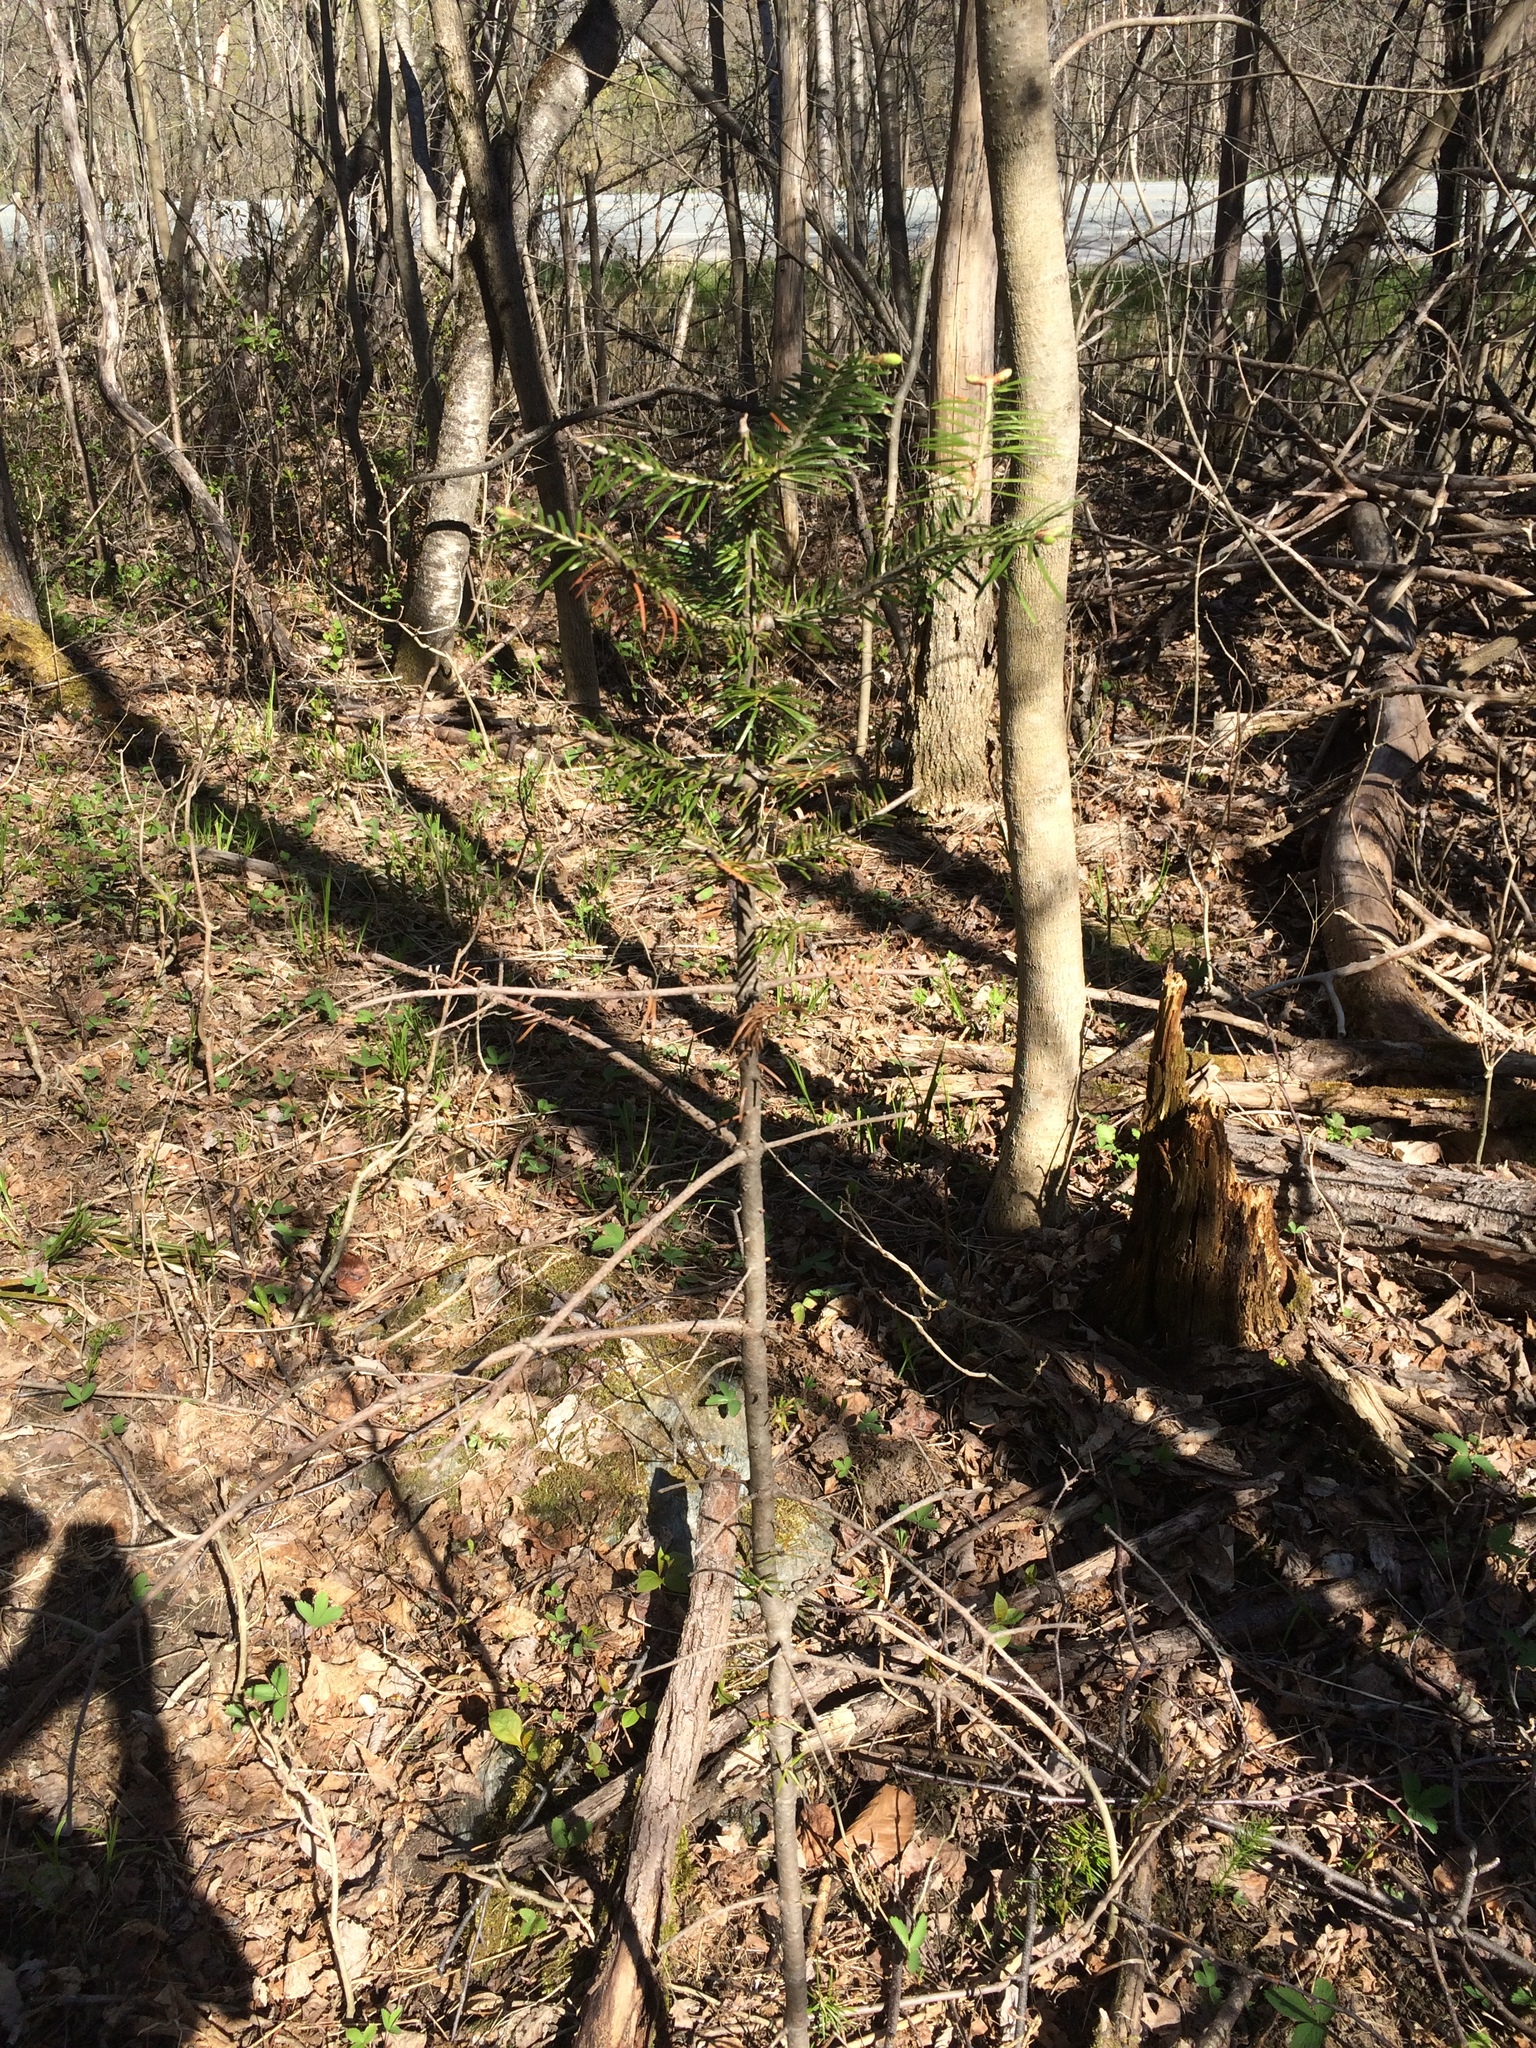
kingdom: Plantae
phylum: Tracheophyta
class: Pinopsida
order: Pinales
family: Pinaceae
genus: Abies
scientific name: Abies balsamea
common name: Balsam fir
